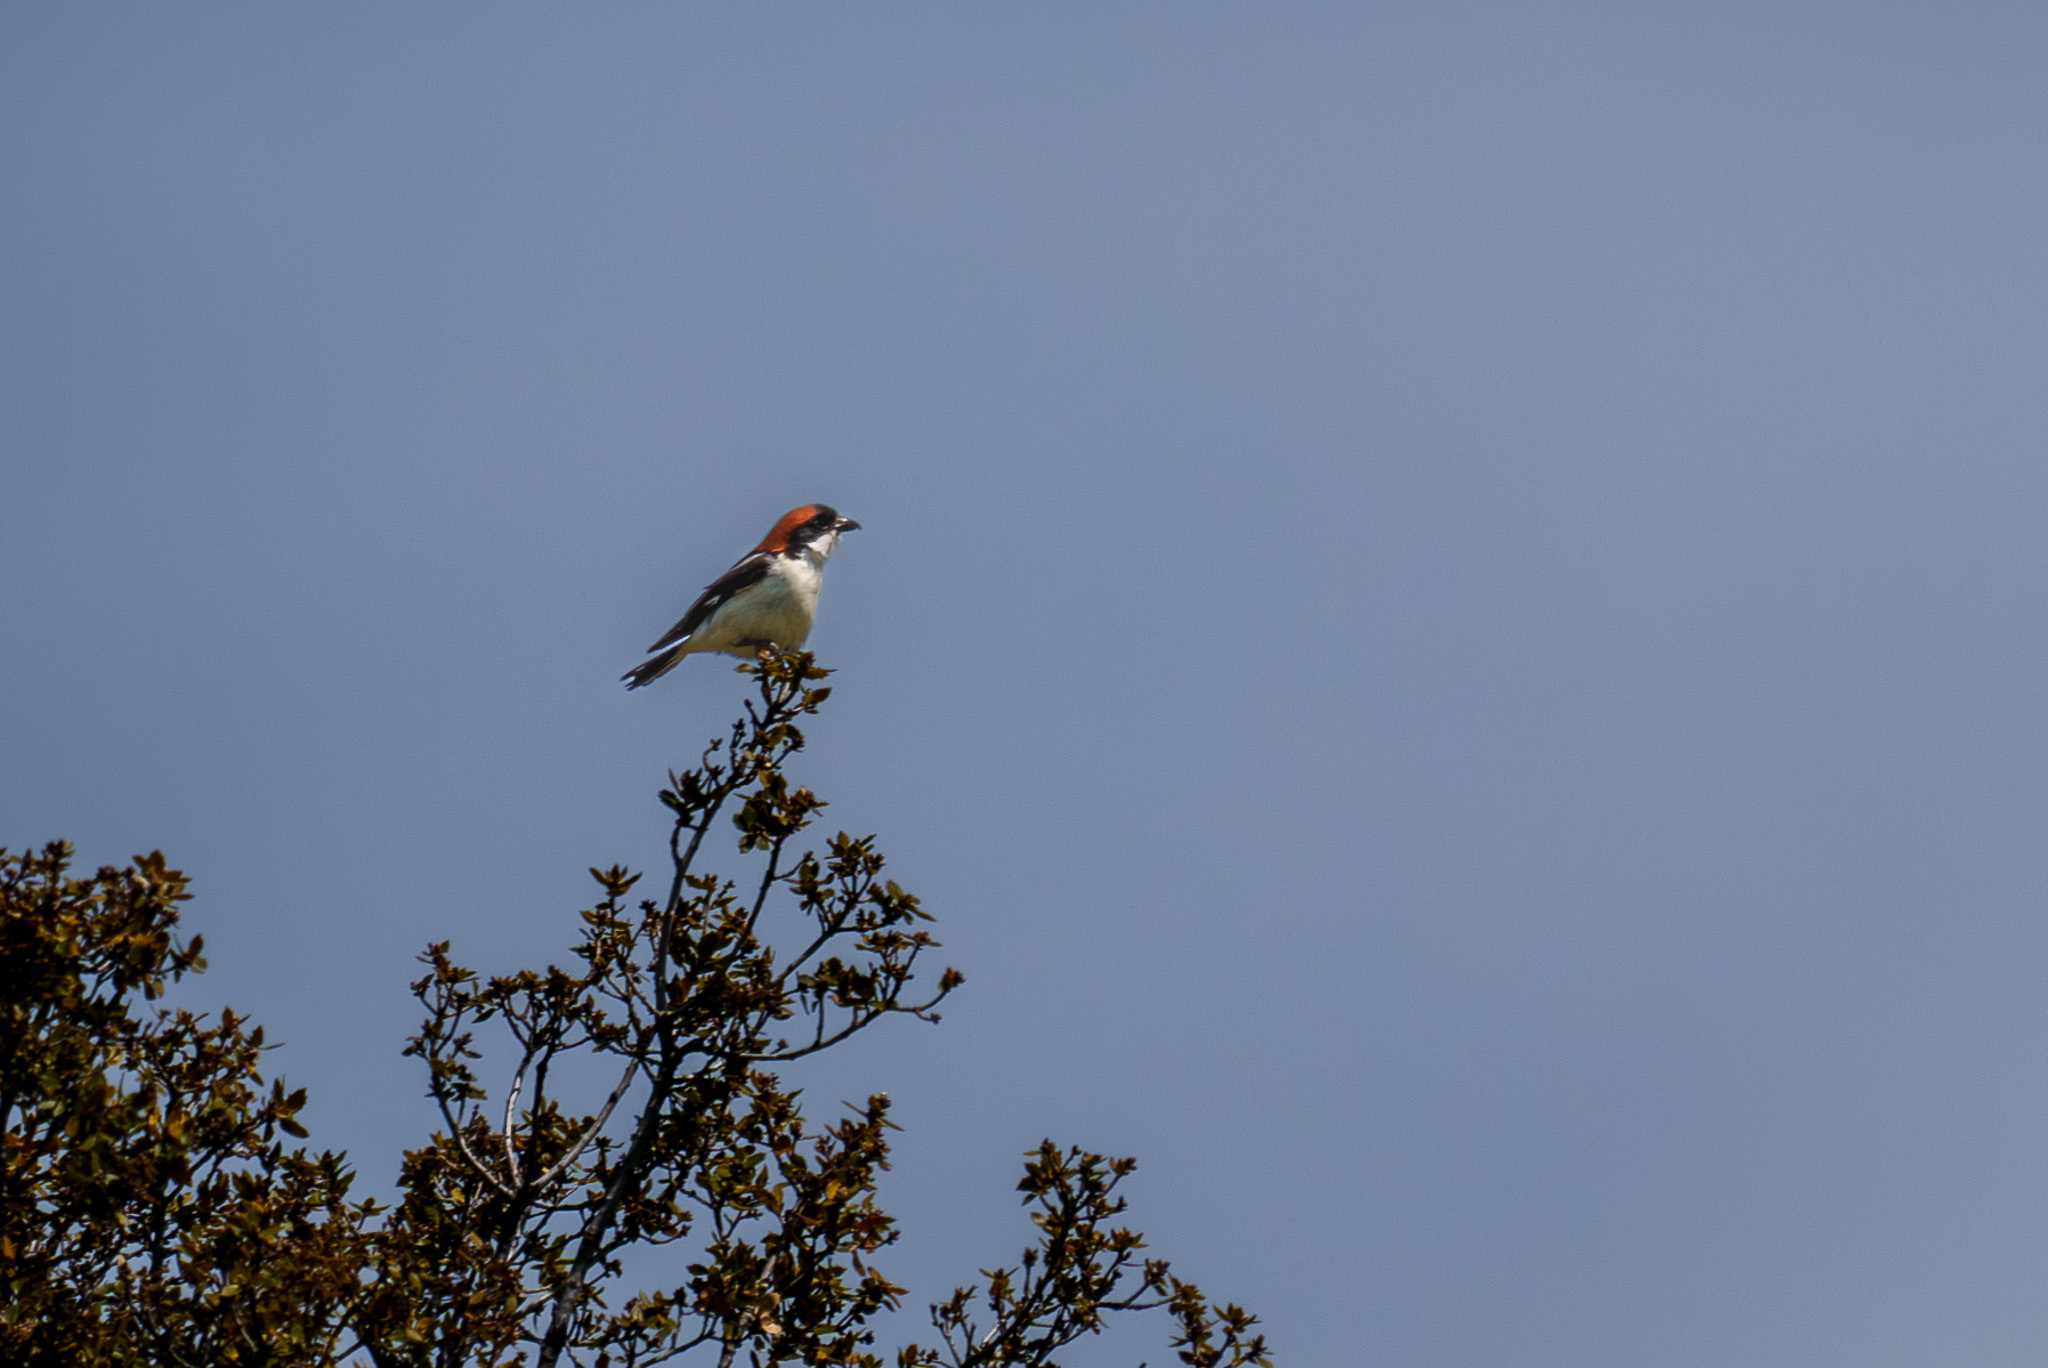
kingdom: Animalia
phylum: Chordata
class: Aves
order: Passeriformes
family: Laniidae
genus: Lanius
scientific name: Lanius senator
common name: Woodchat shrike
